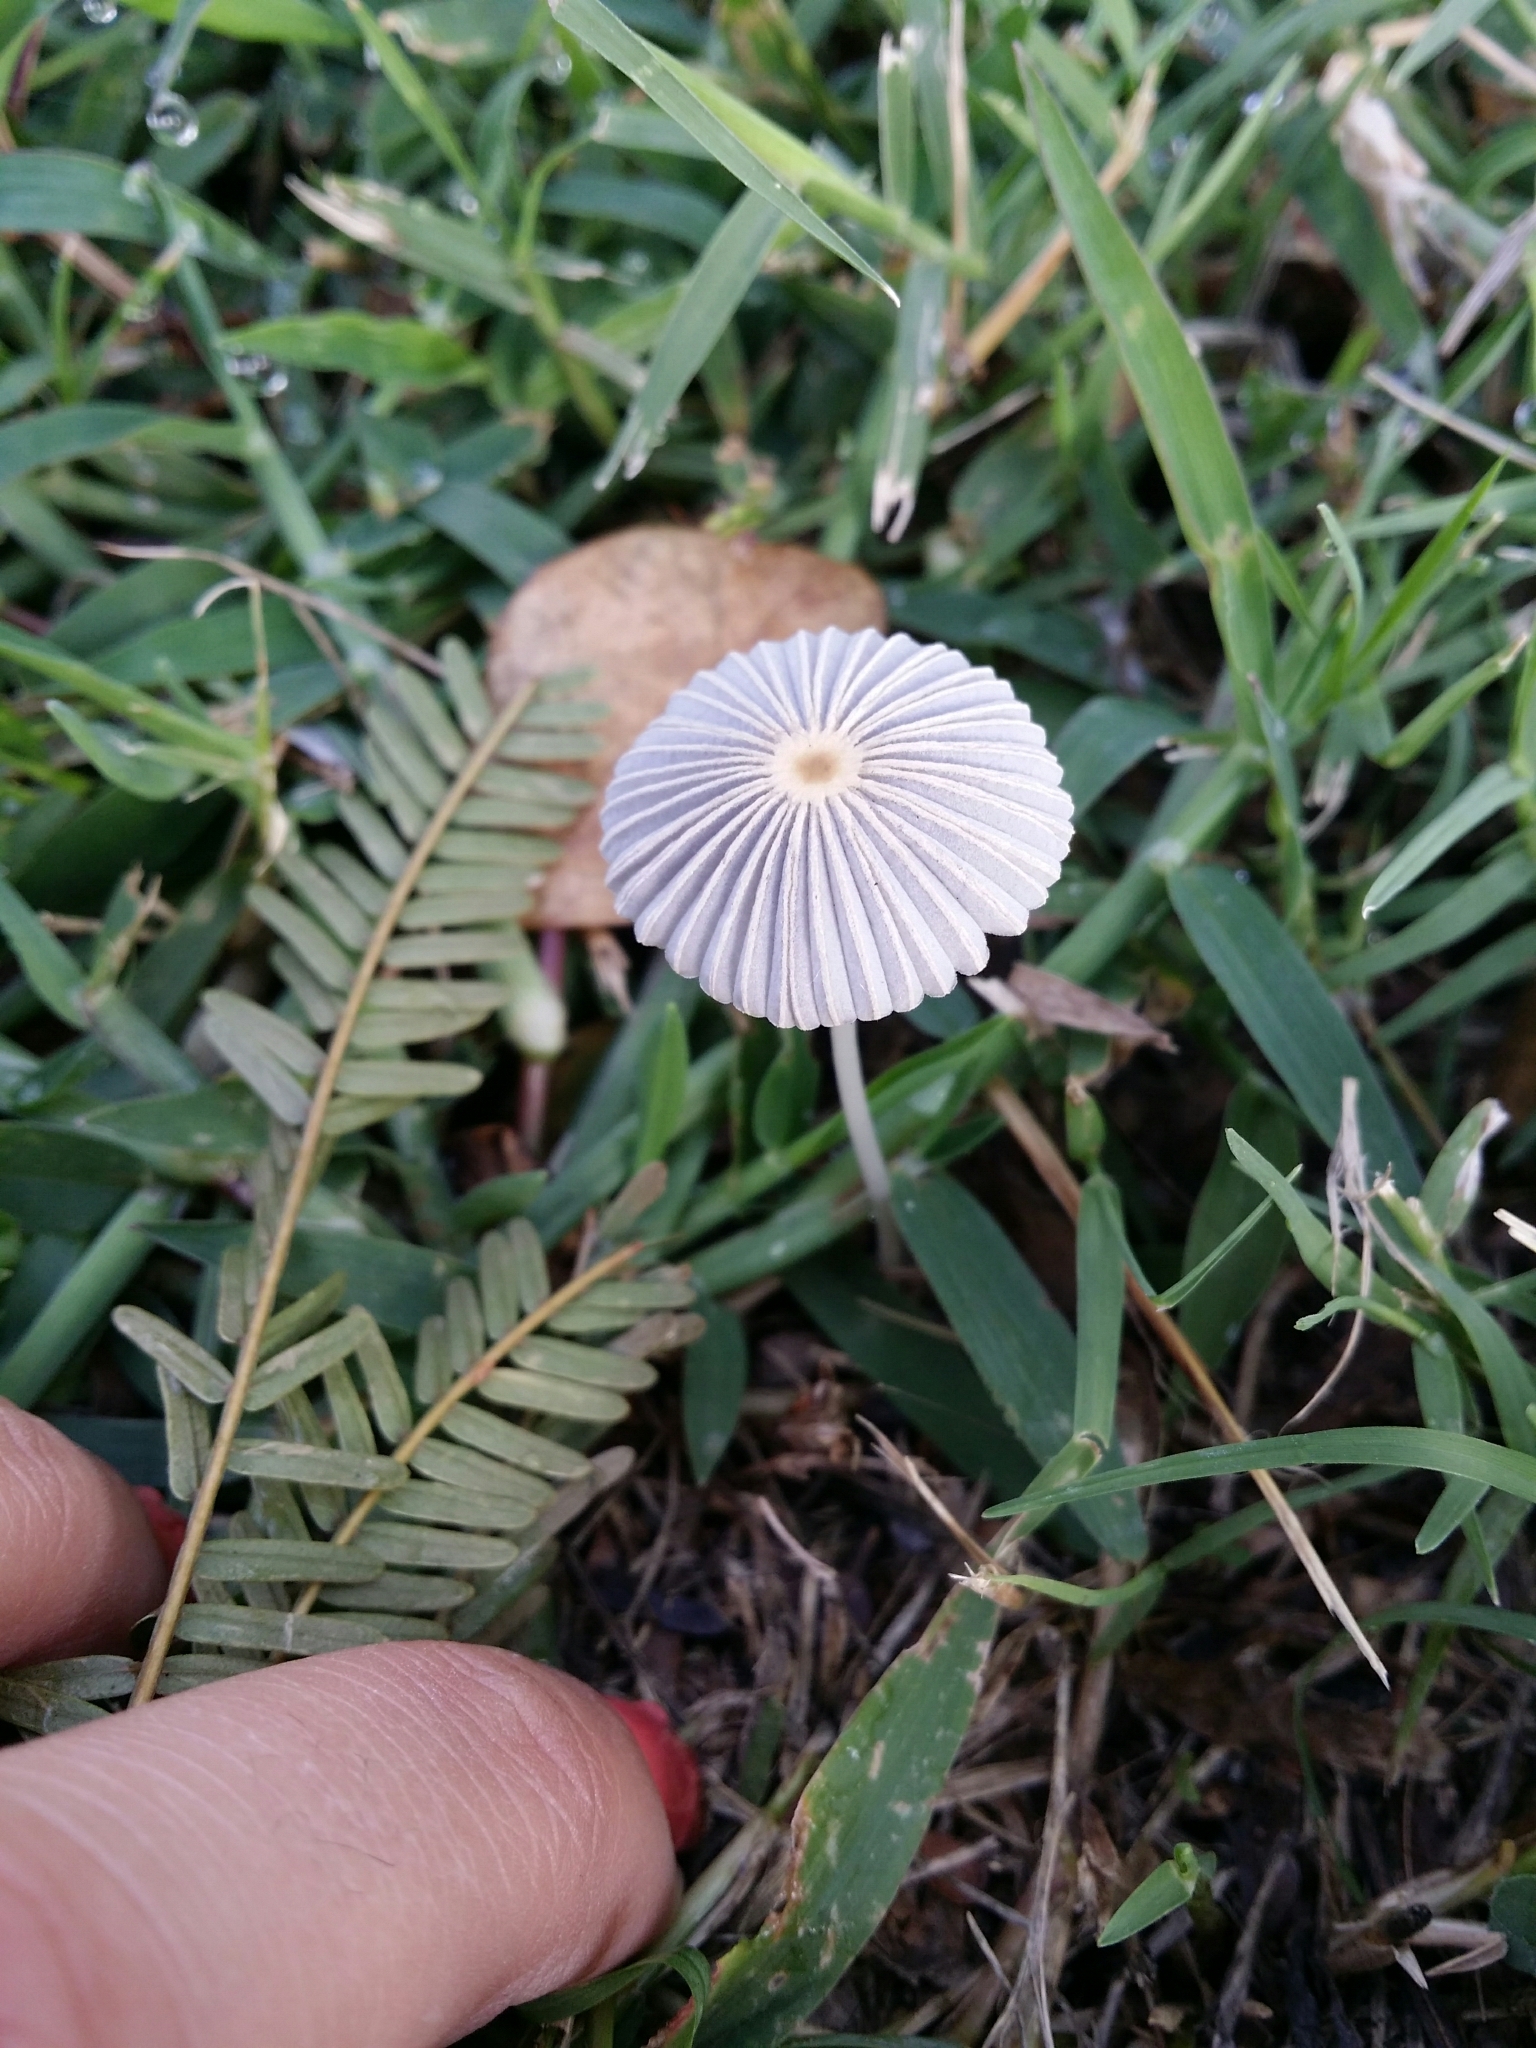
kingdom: Fungi
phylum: Basidiomycota
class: Agaricomycetes
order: Agaricales
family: Psathyrellaceae
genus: Parasola
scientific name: Parasola plicatilis
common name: Pleated inkcap
